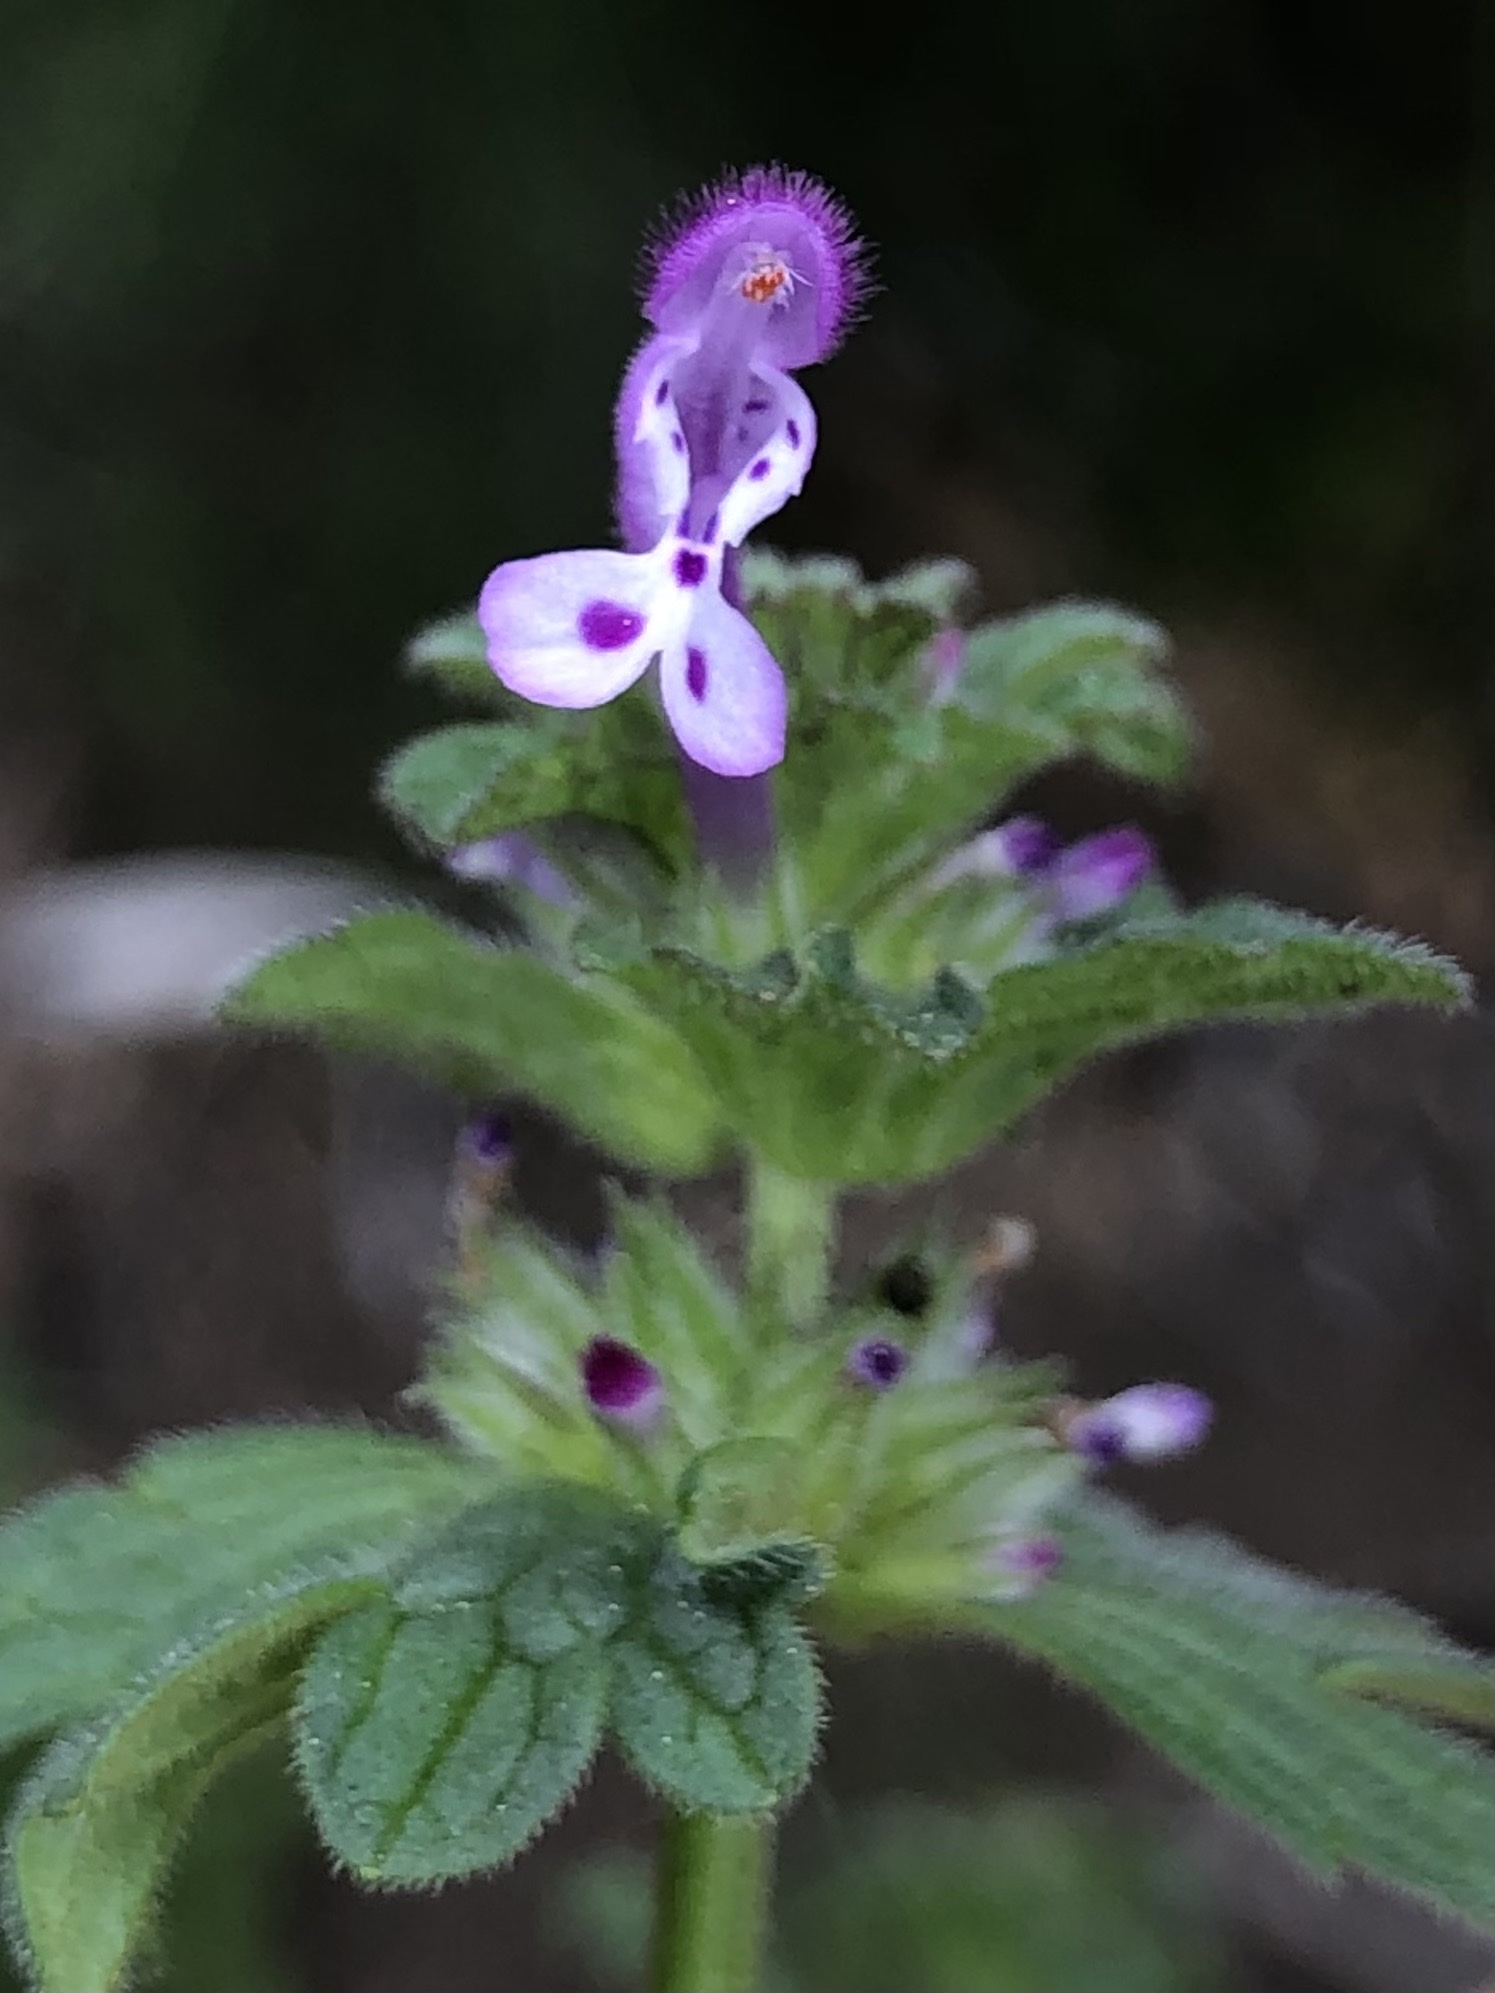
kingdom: Plantae
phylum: Tracheophyta
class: Magnoliopsida
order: Lamiales
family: Lamiaceae
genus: Lamium
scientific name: Lamium amplexicaule
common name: Henbit dead-nettle
